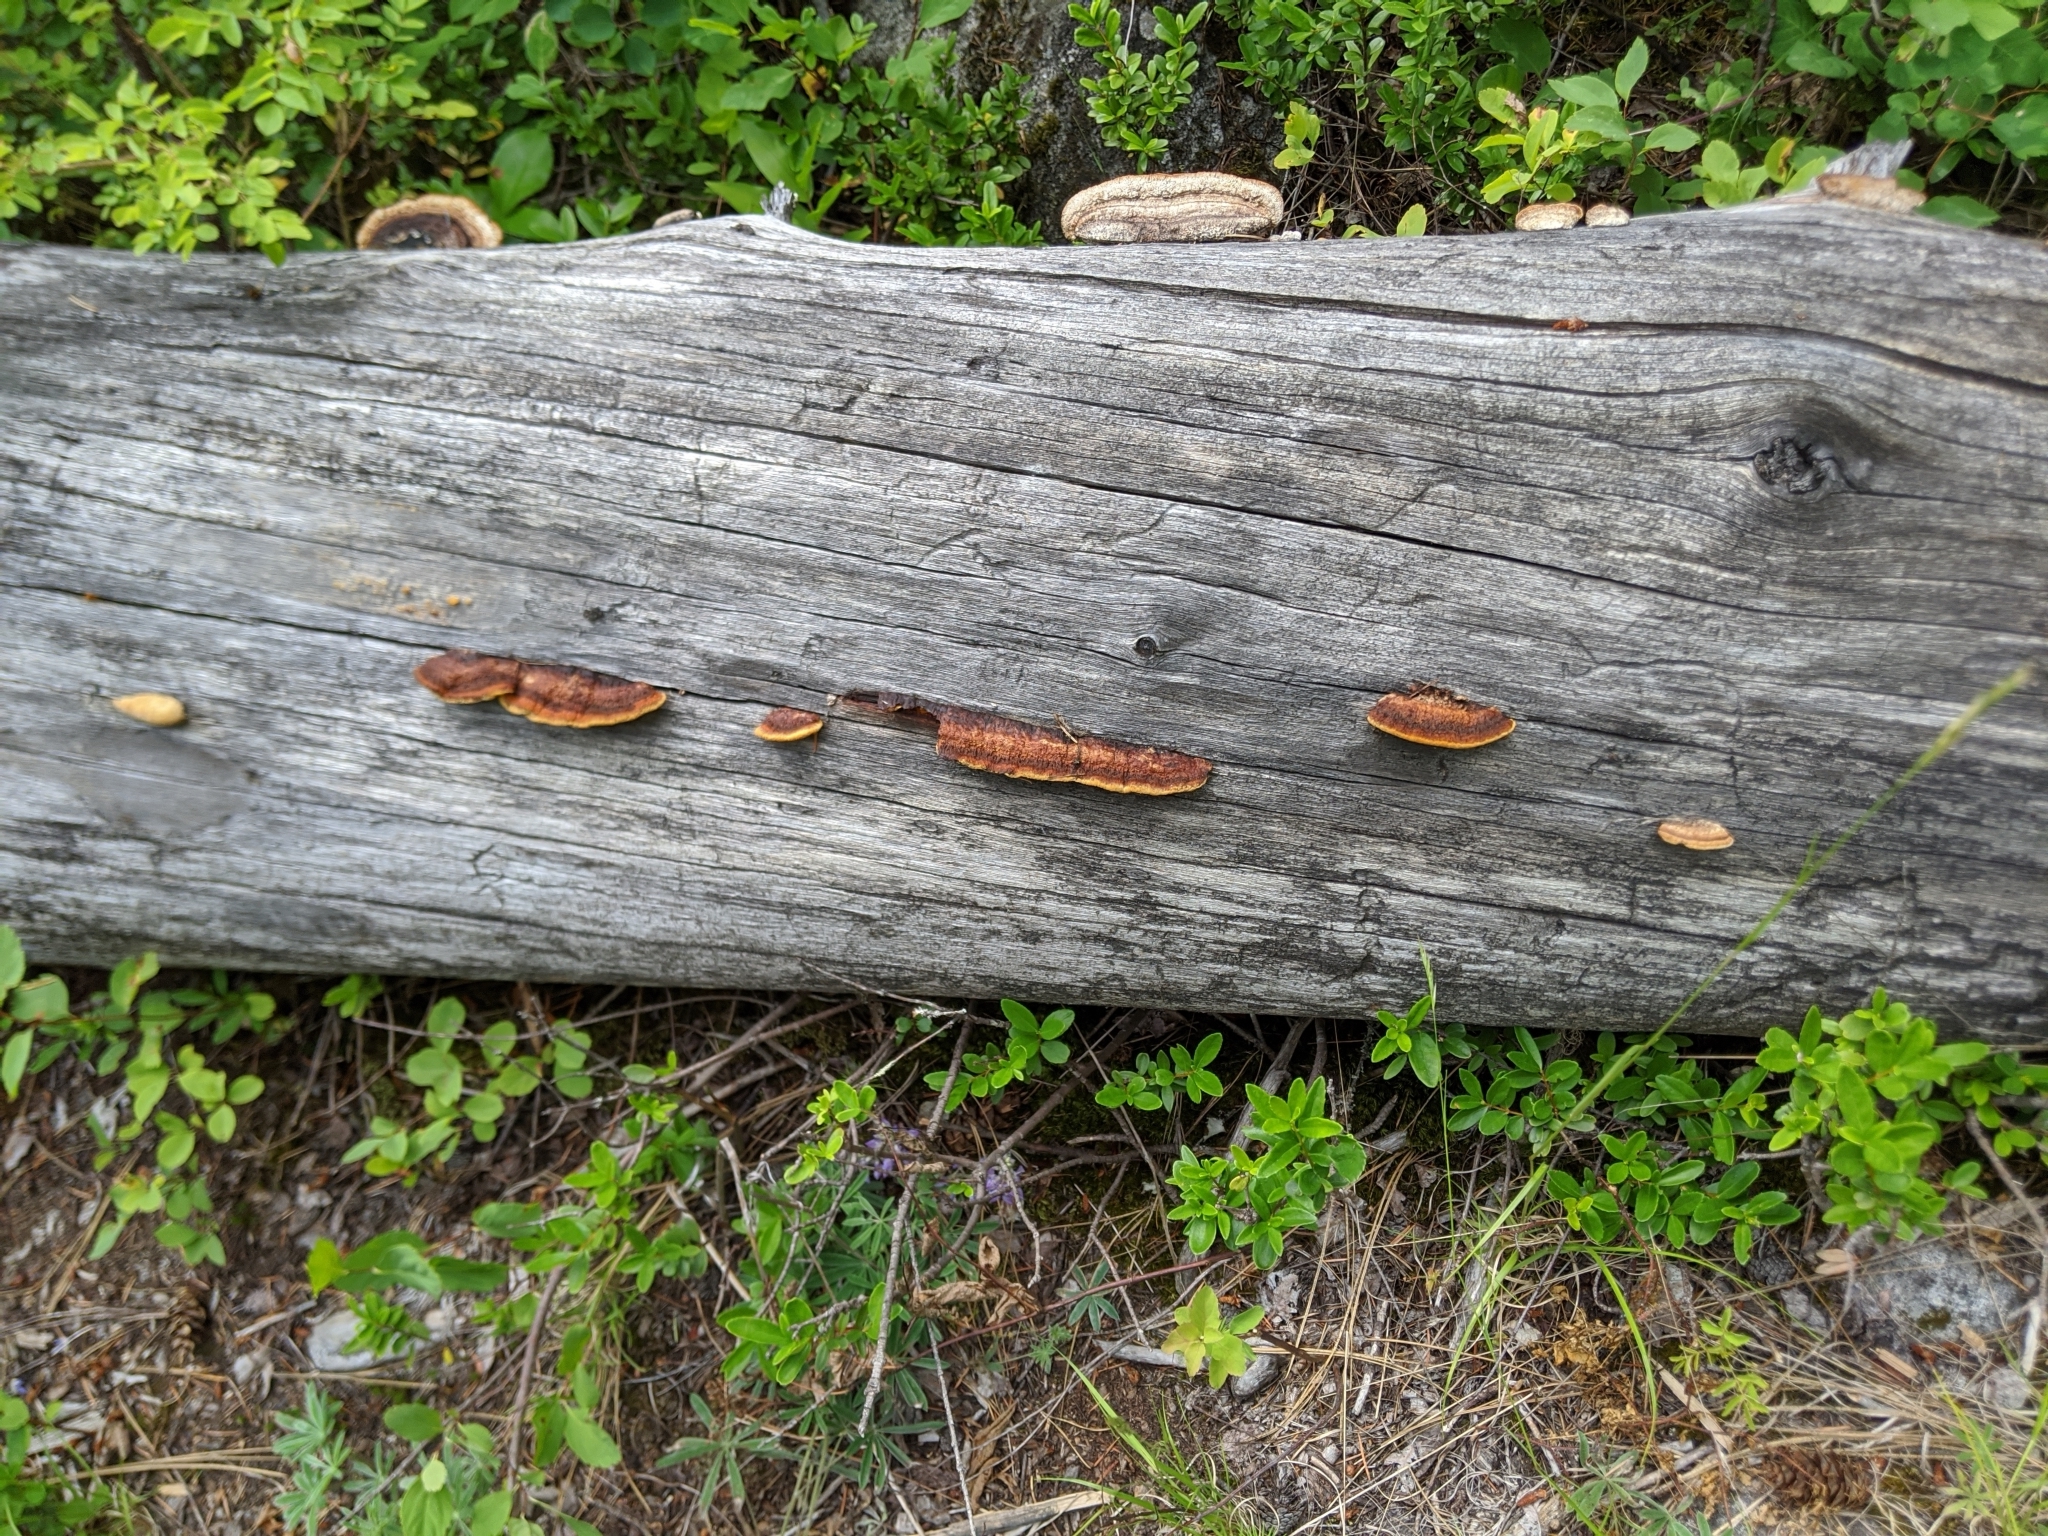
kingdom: Fungi
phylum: Basidiomycota
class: Agaricomycetes
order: Gloeophyllales
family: Gloeophyllaceae
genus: Gloeophyllum
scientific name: Gloeophyllum sepiarium
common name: Conifer mazegill
